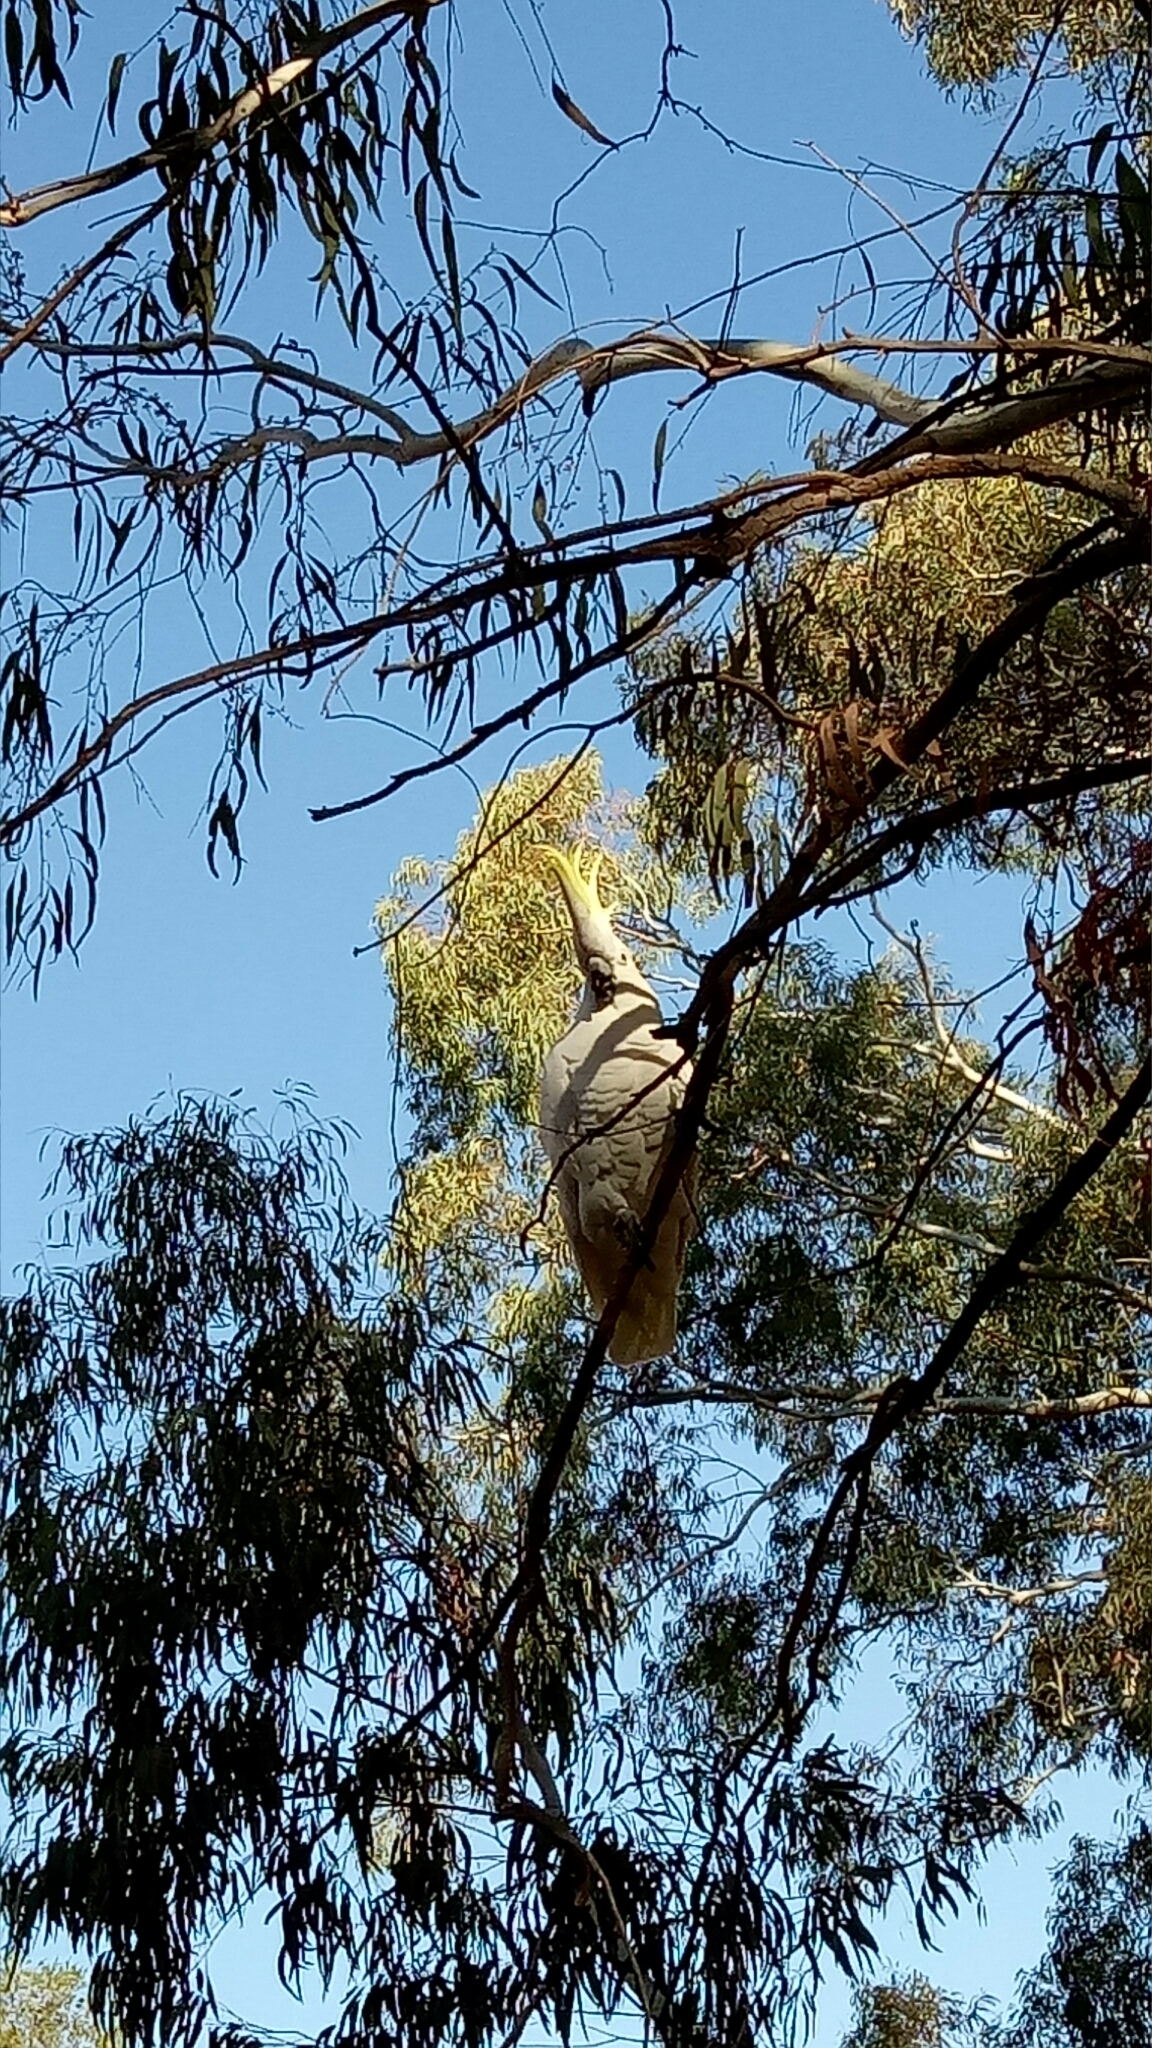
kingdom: Animalia
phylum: Chordata
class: Aves
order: Psittaciformes
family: Psittacidae
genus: Cacatua
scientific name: Cacatua galerita
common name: Sulphur-crested cockatoo
